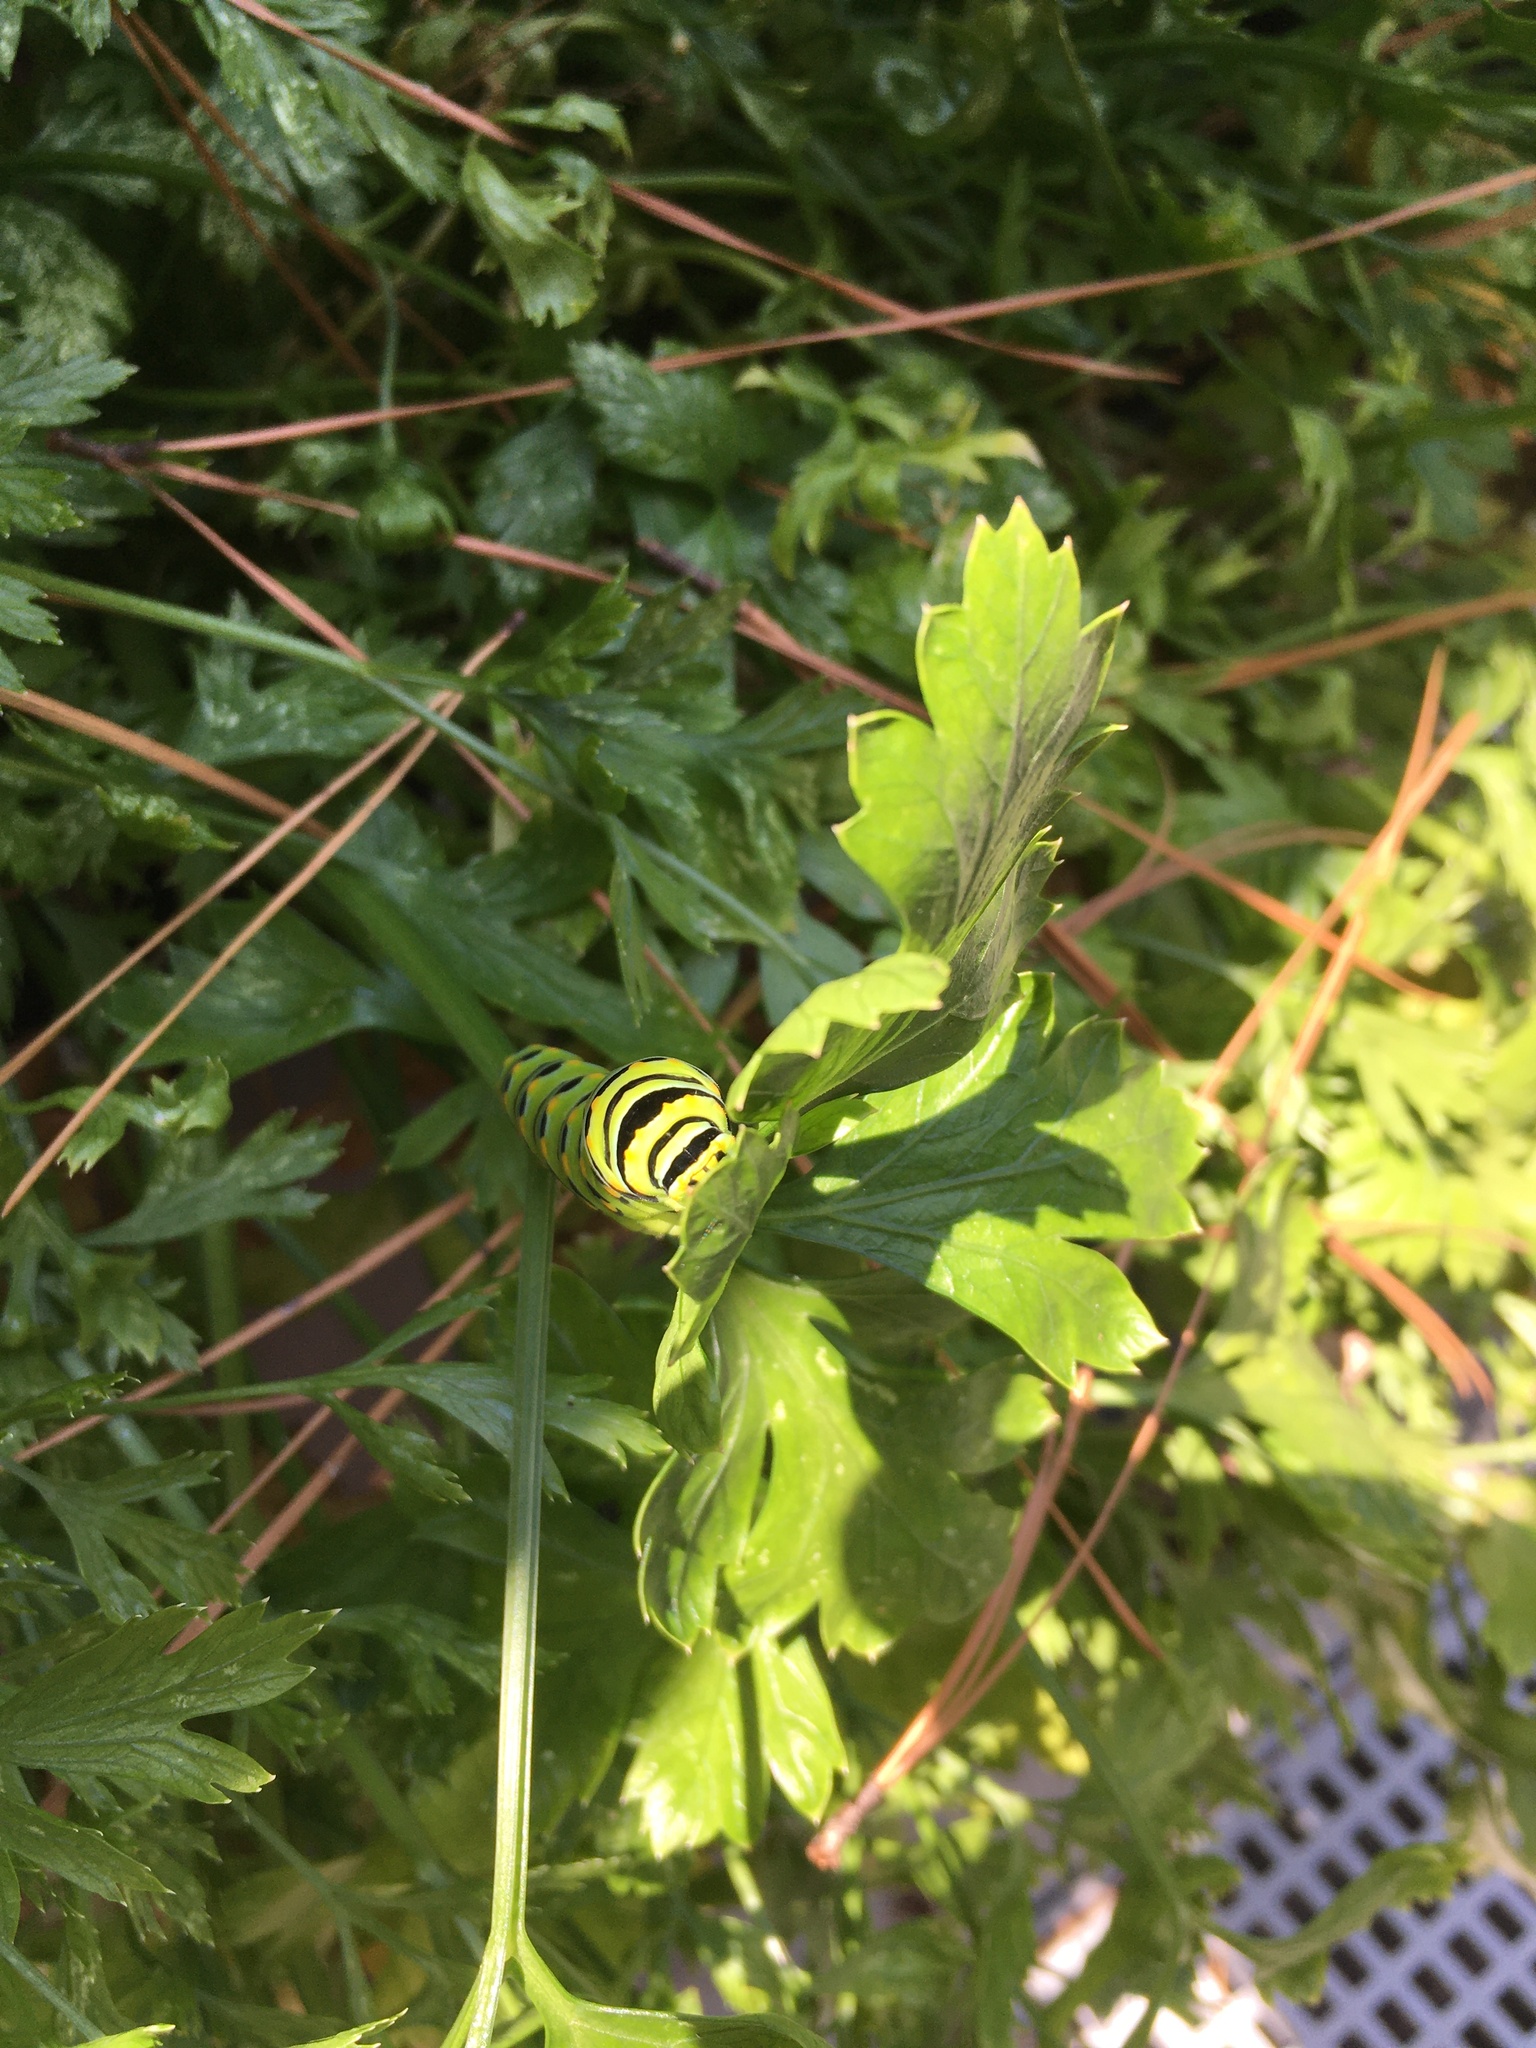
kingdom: Animalia
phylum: Arthropoda
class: Insecta
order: Lepidoptera
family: Papilionidae
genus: Papilio
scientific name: Papilio polyxenes
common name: Black swallowtail
